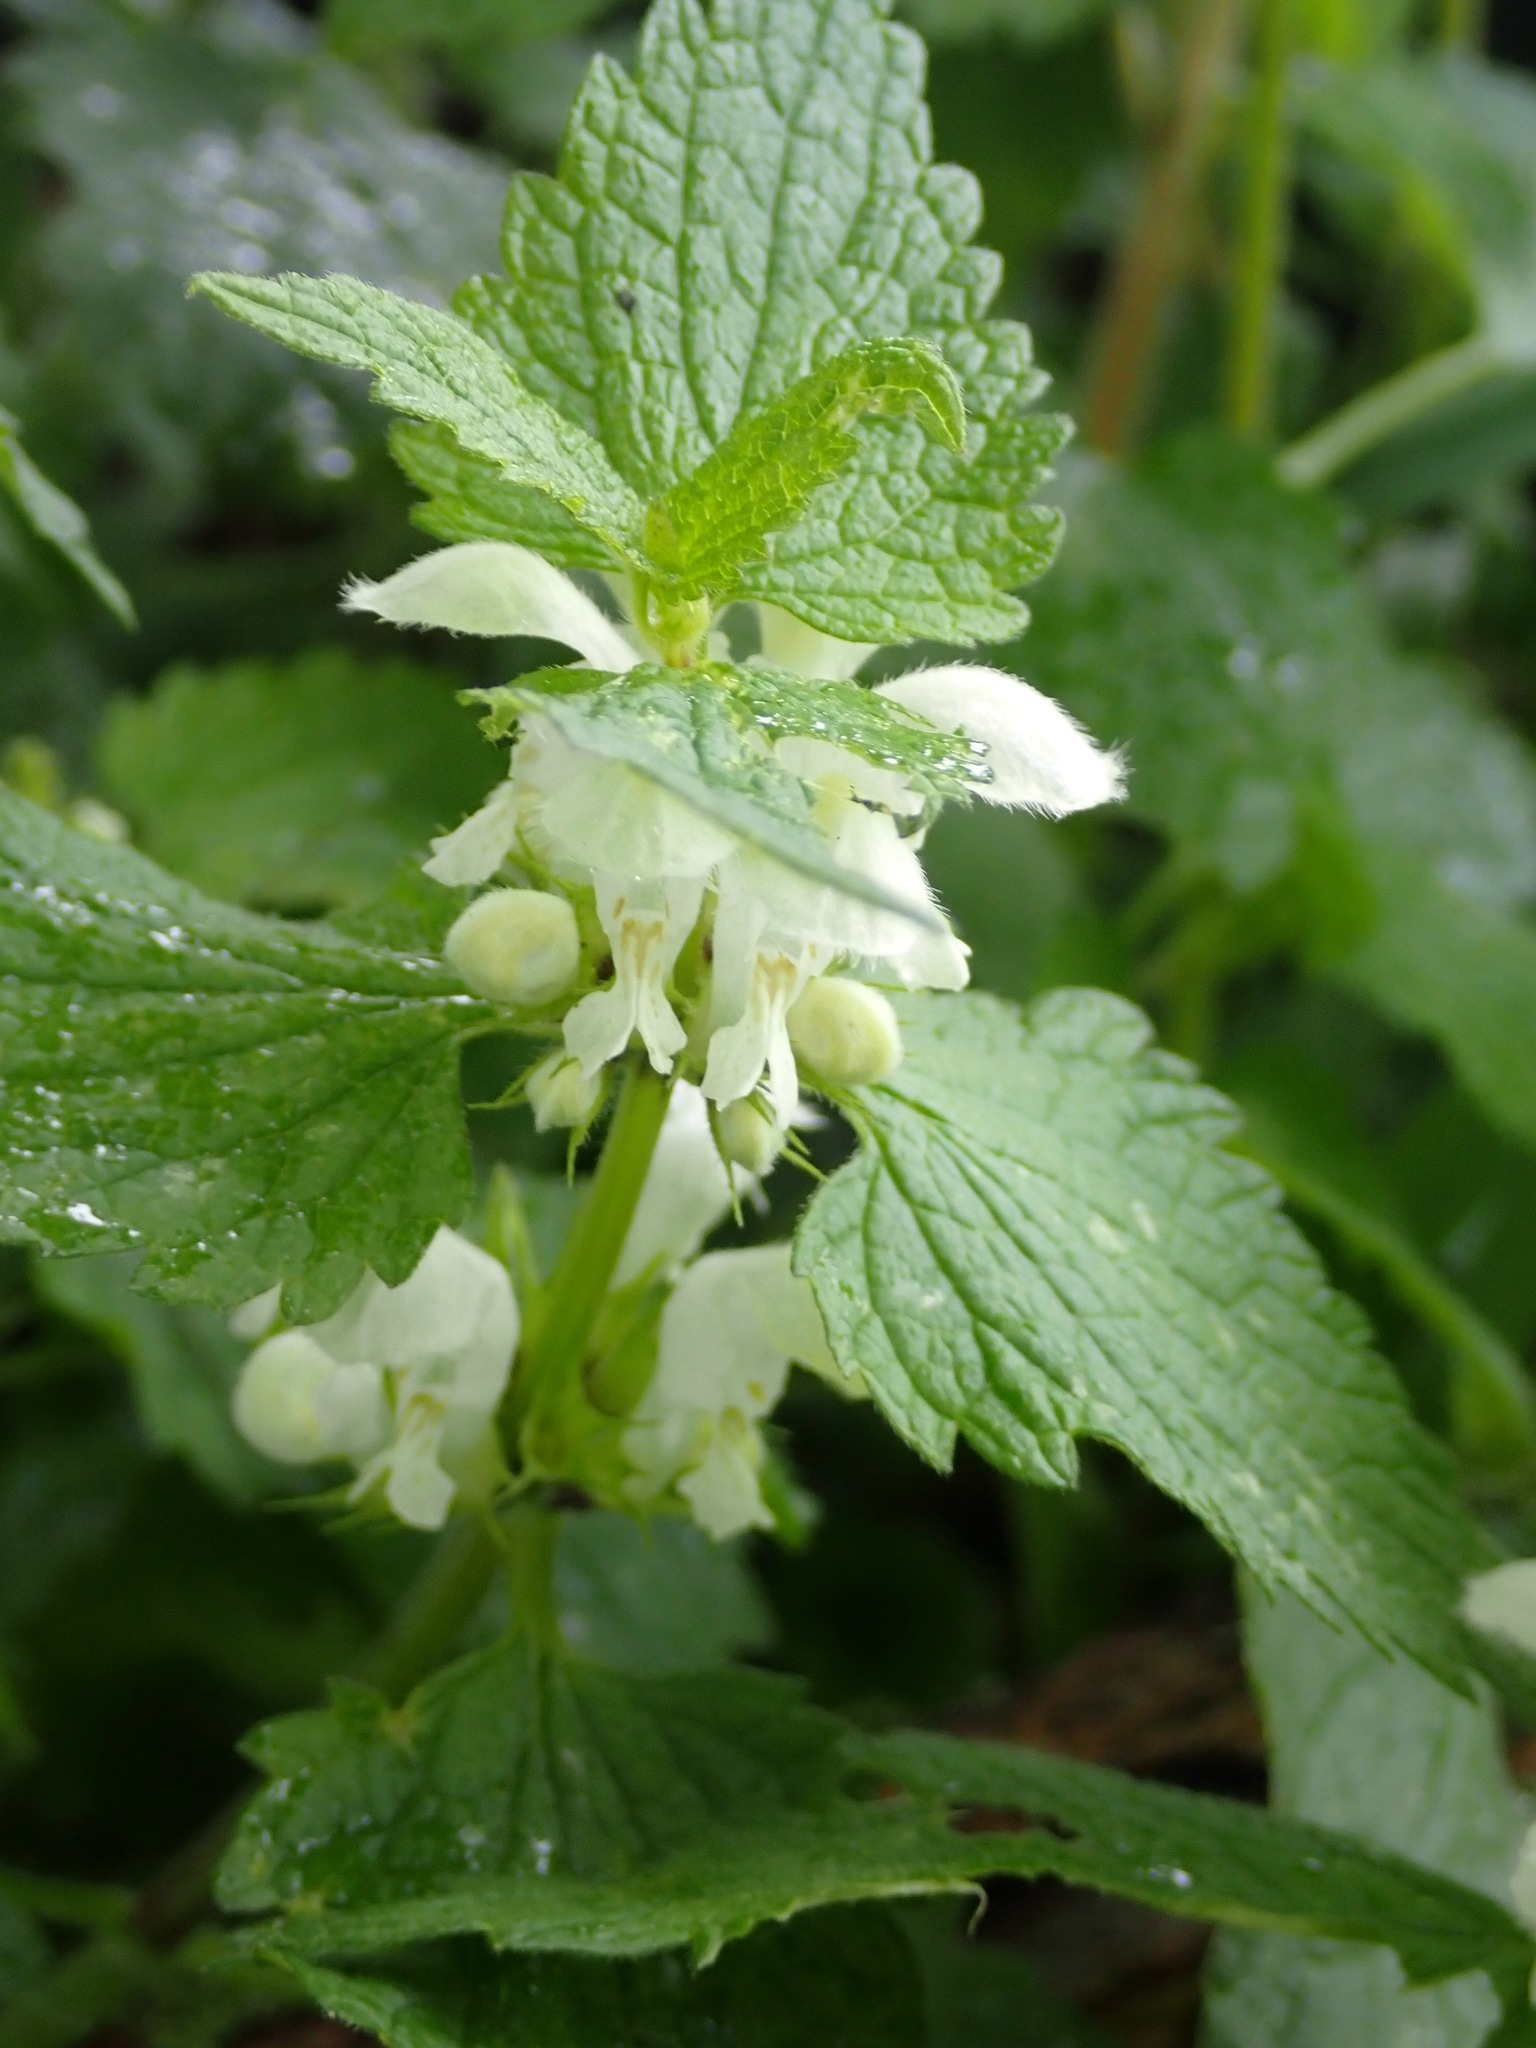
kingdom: Plantae
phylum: Tracheophyta
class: Magnoliopsida
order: Lamiales
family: Lamiaceae
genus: Lamium
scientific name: Lamium album
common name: White dead-nettle
